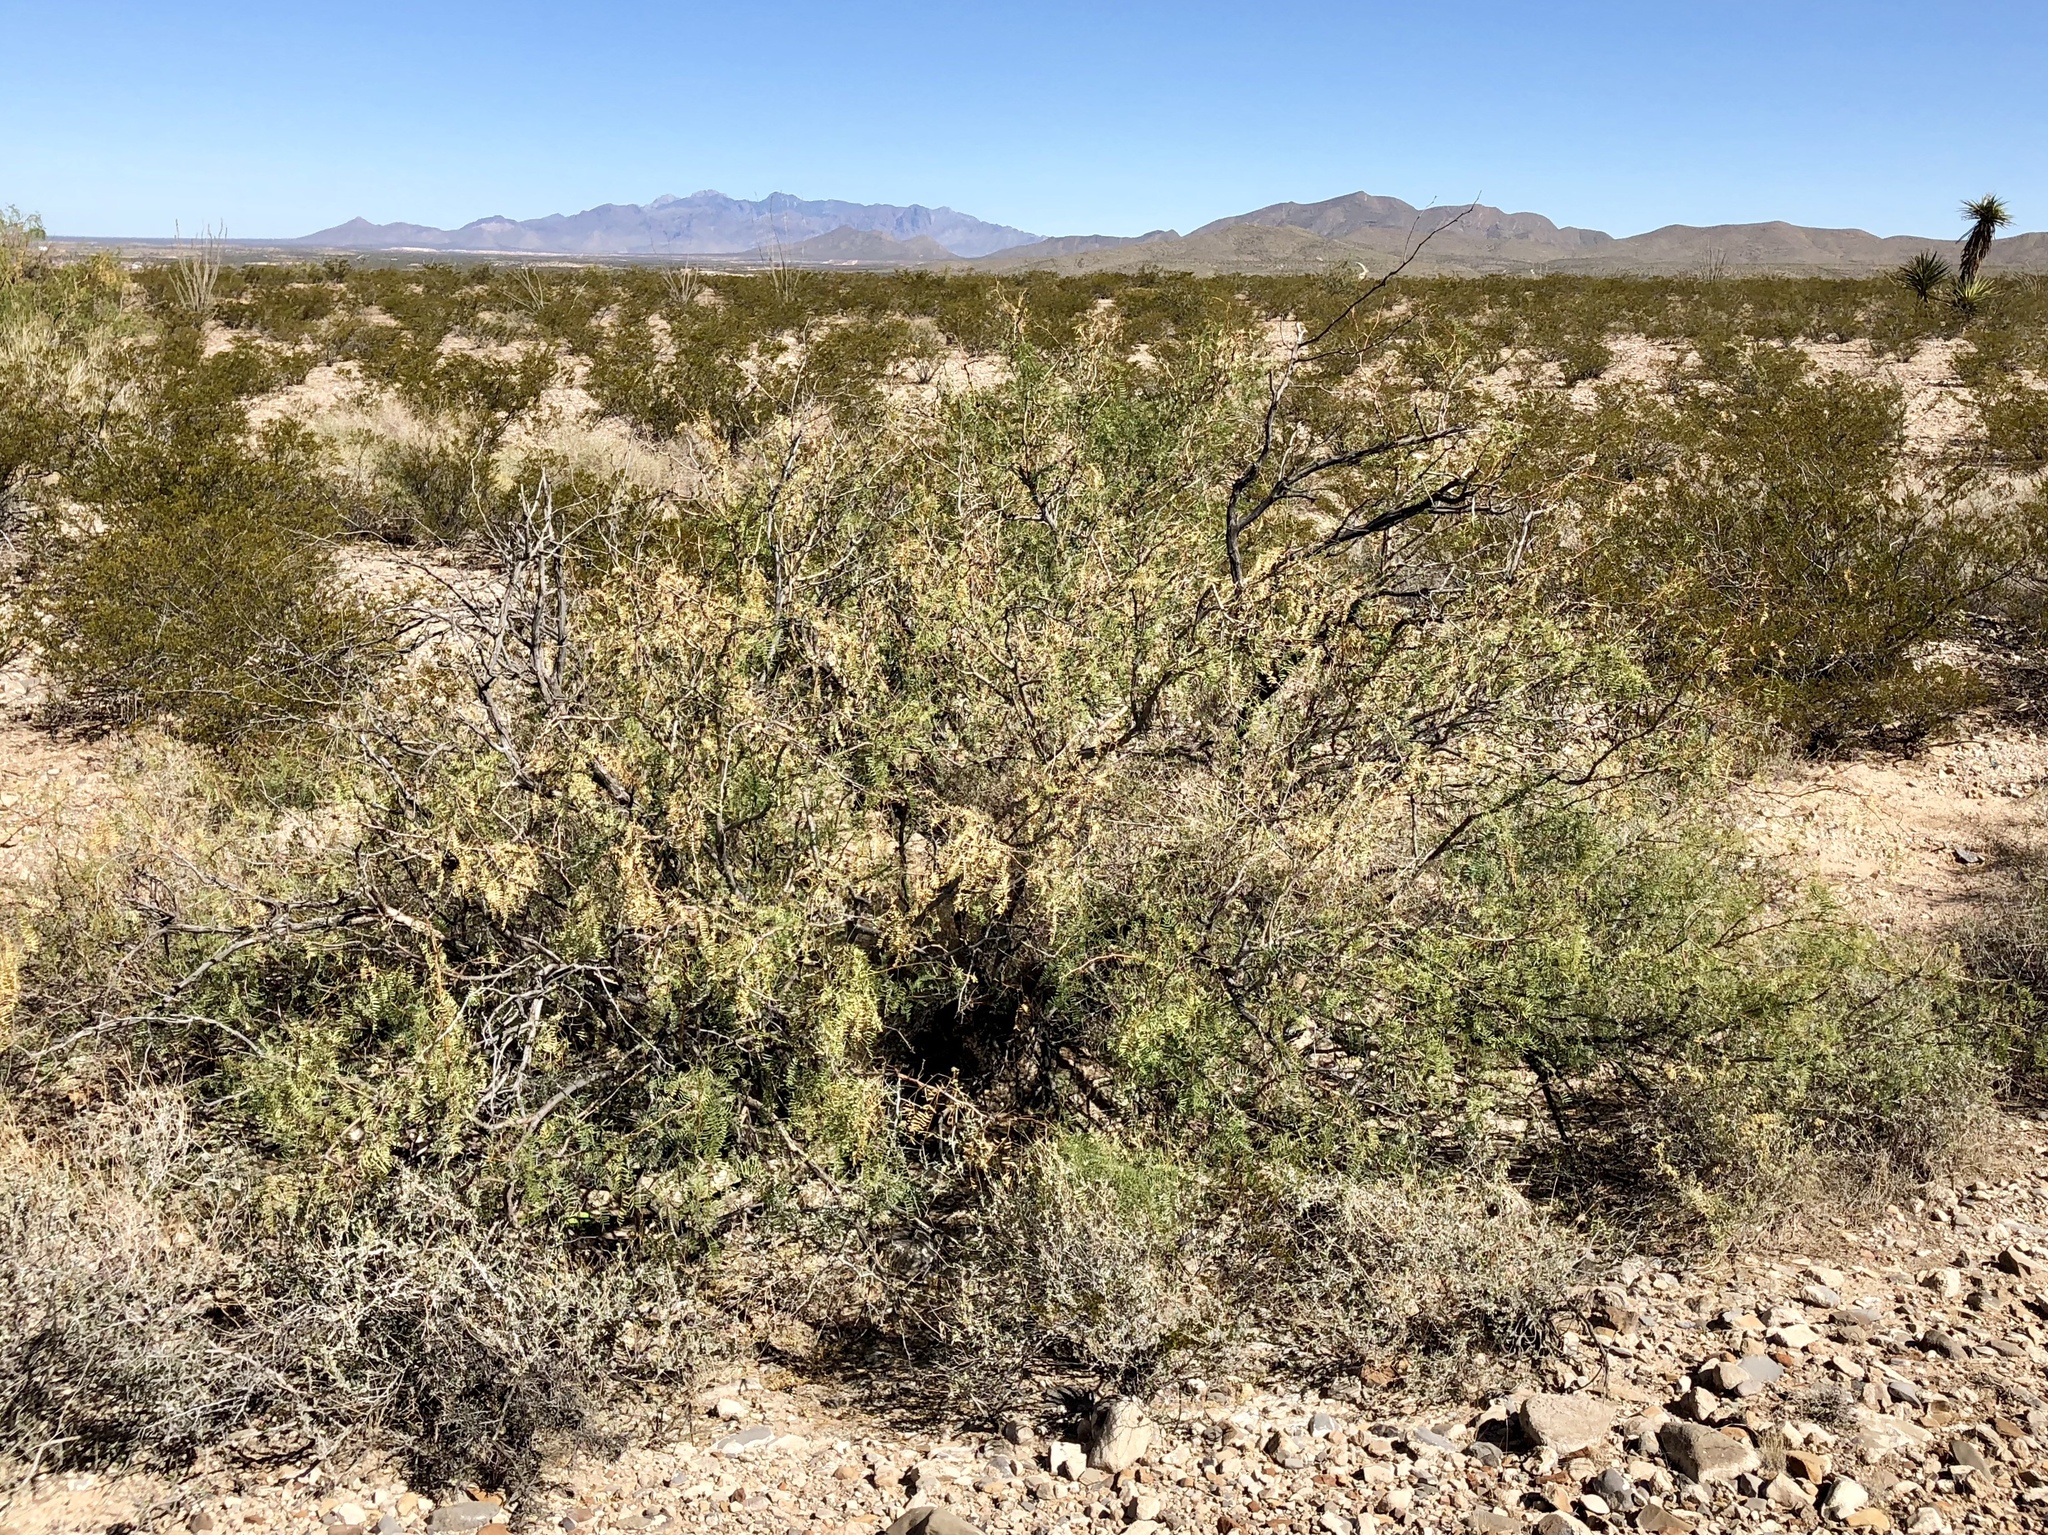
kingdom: Plantae
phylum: Tracheophyta
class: Magnoliopsida
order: Fabales
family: Fabaceae
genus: Prosopis
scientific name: Prosopis glandulosa
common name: Honey mesquite
